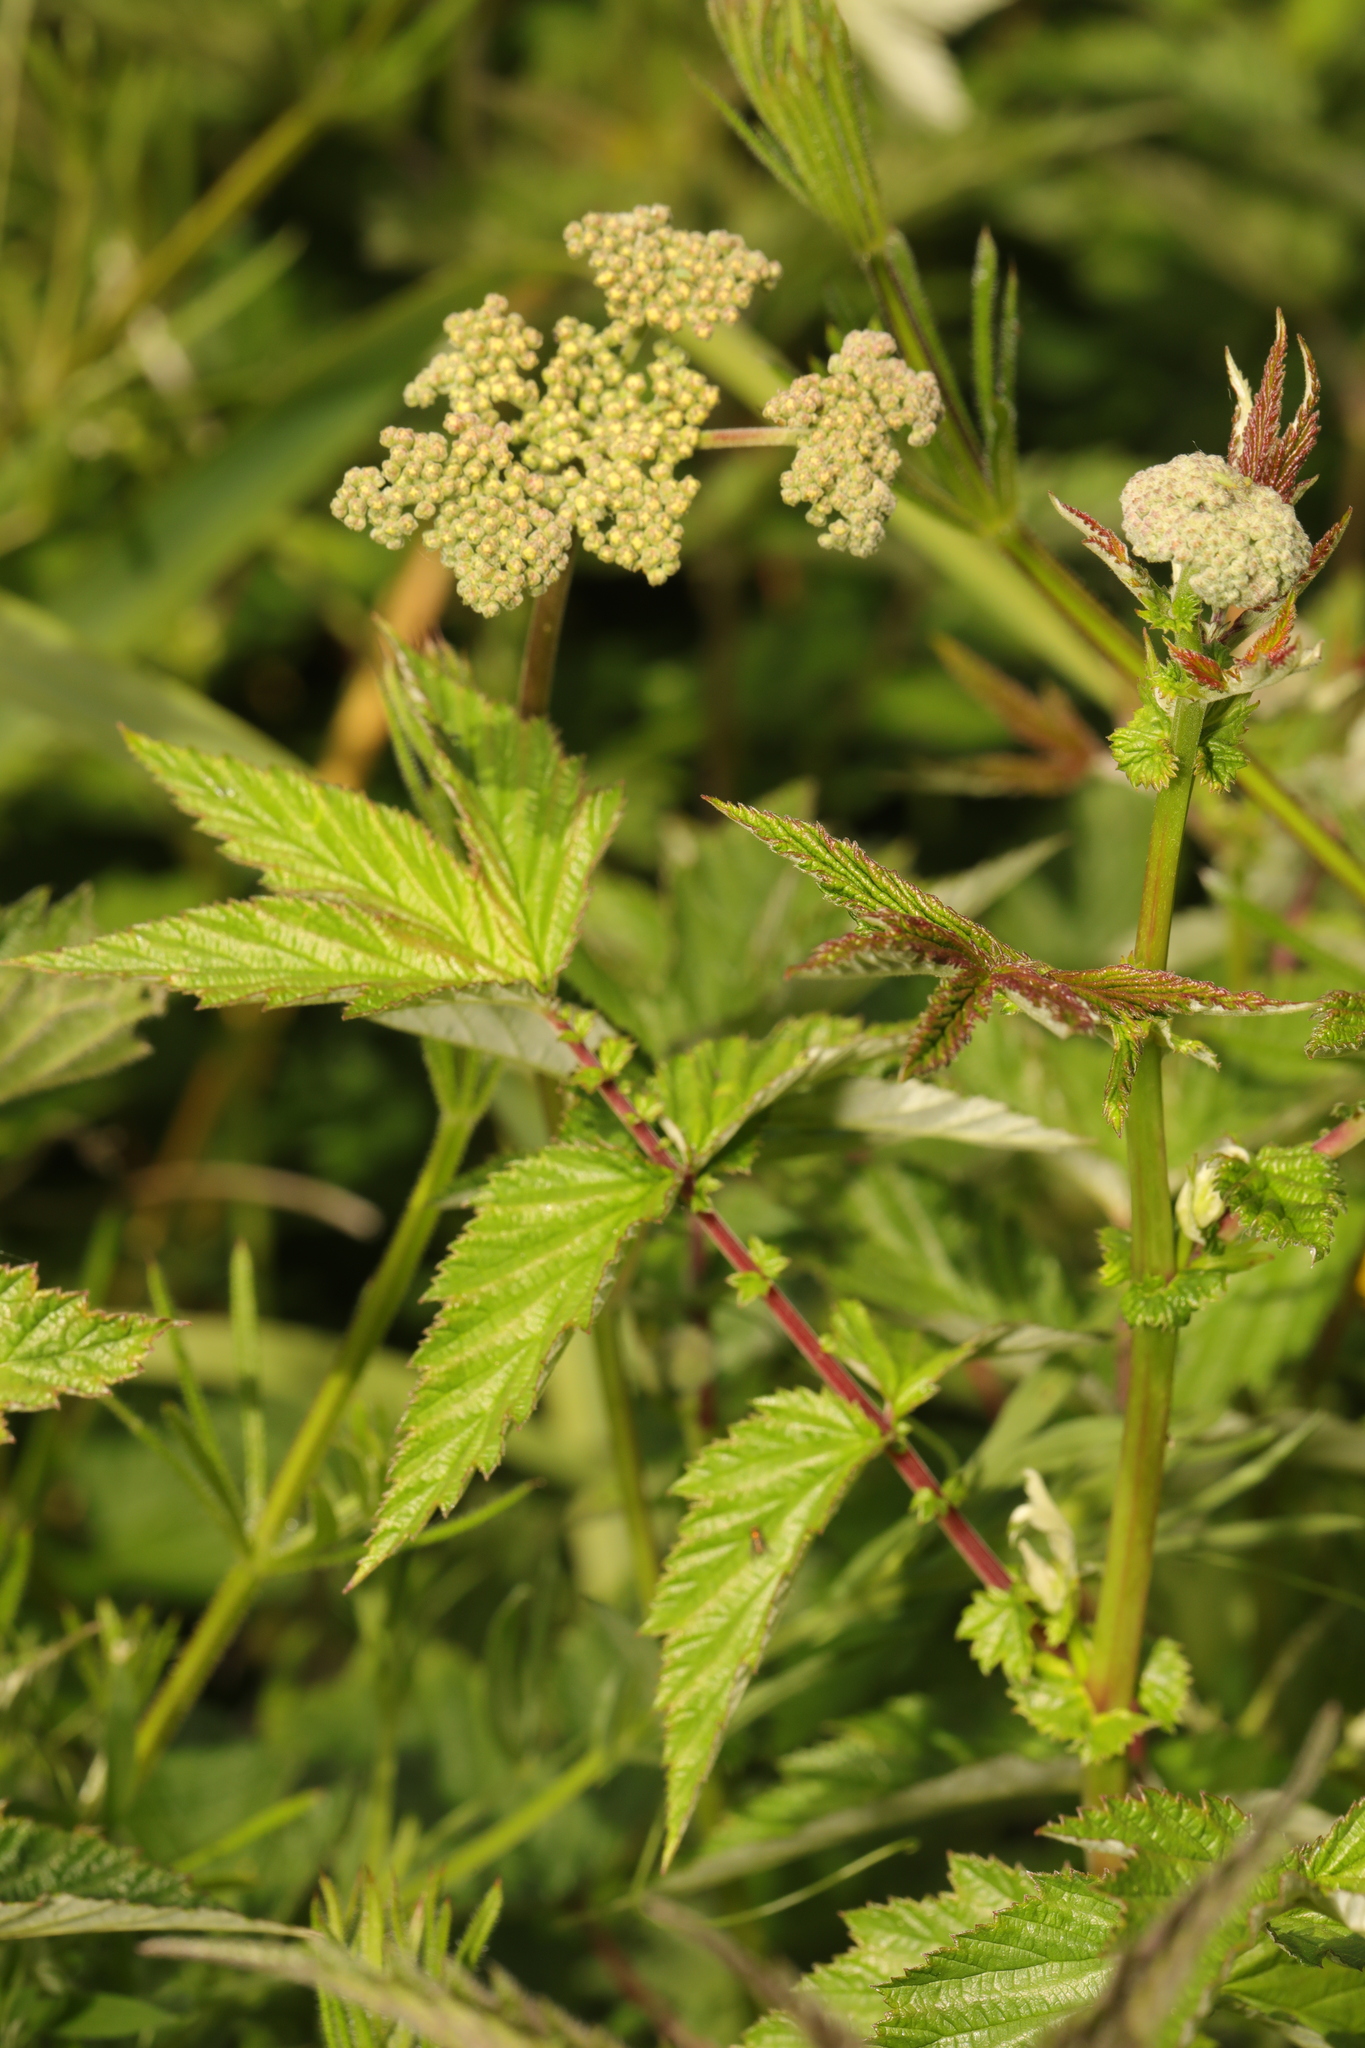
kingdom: Plantae
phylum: Tracheophyta
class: Magnoliopsida
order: Rosales
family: Rosaceae
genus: Filipendula
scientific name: Filipendula ulmaria
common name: Meadowsweet
